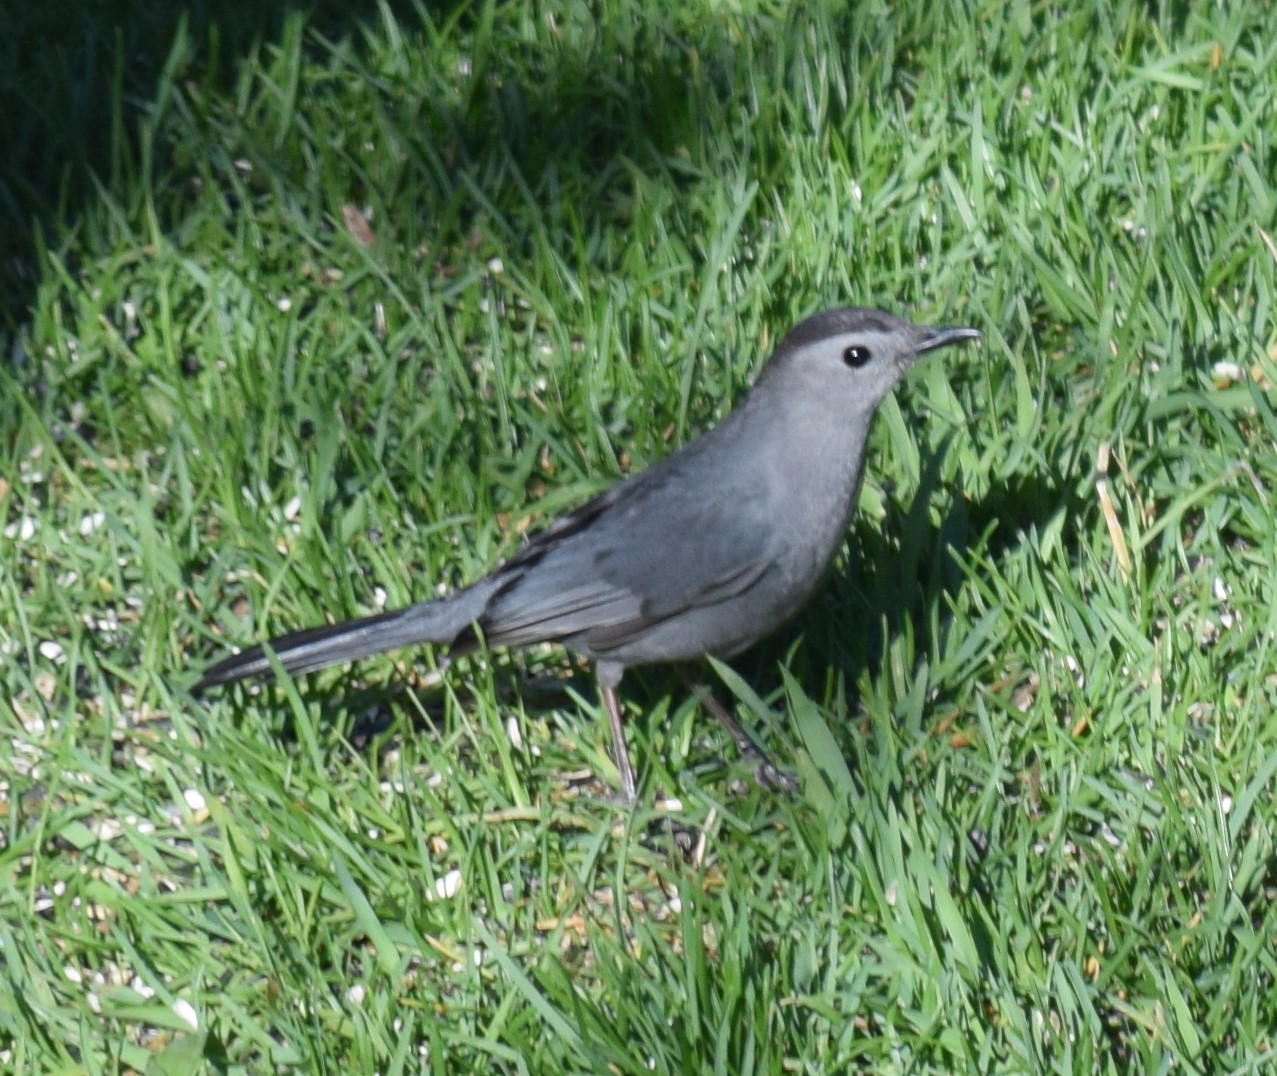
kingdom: Animalia
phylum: Chordata
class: Aves
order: Passeriformes
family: Mimidae
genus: Dumetella
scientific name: Dumetella carolinensis
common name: Gray catbird
